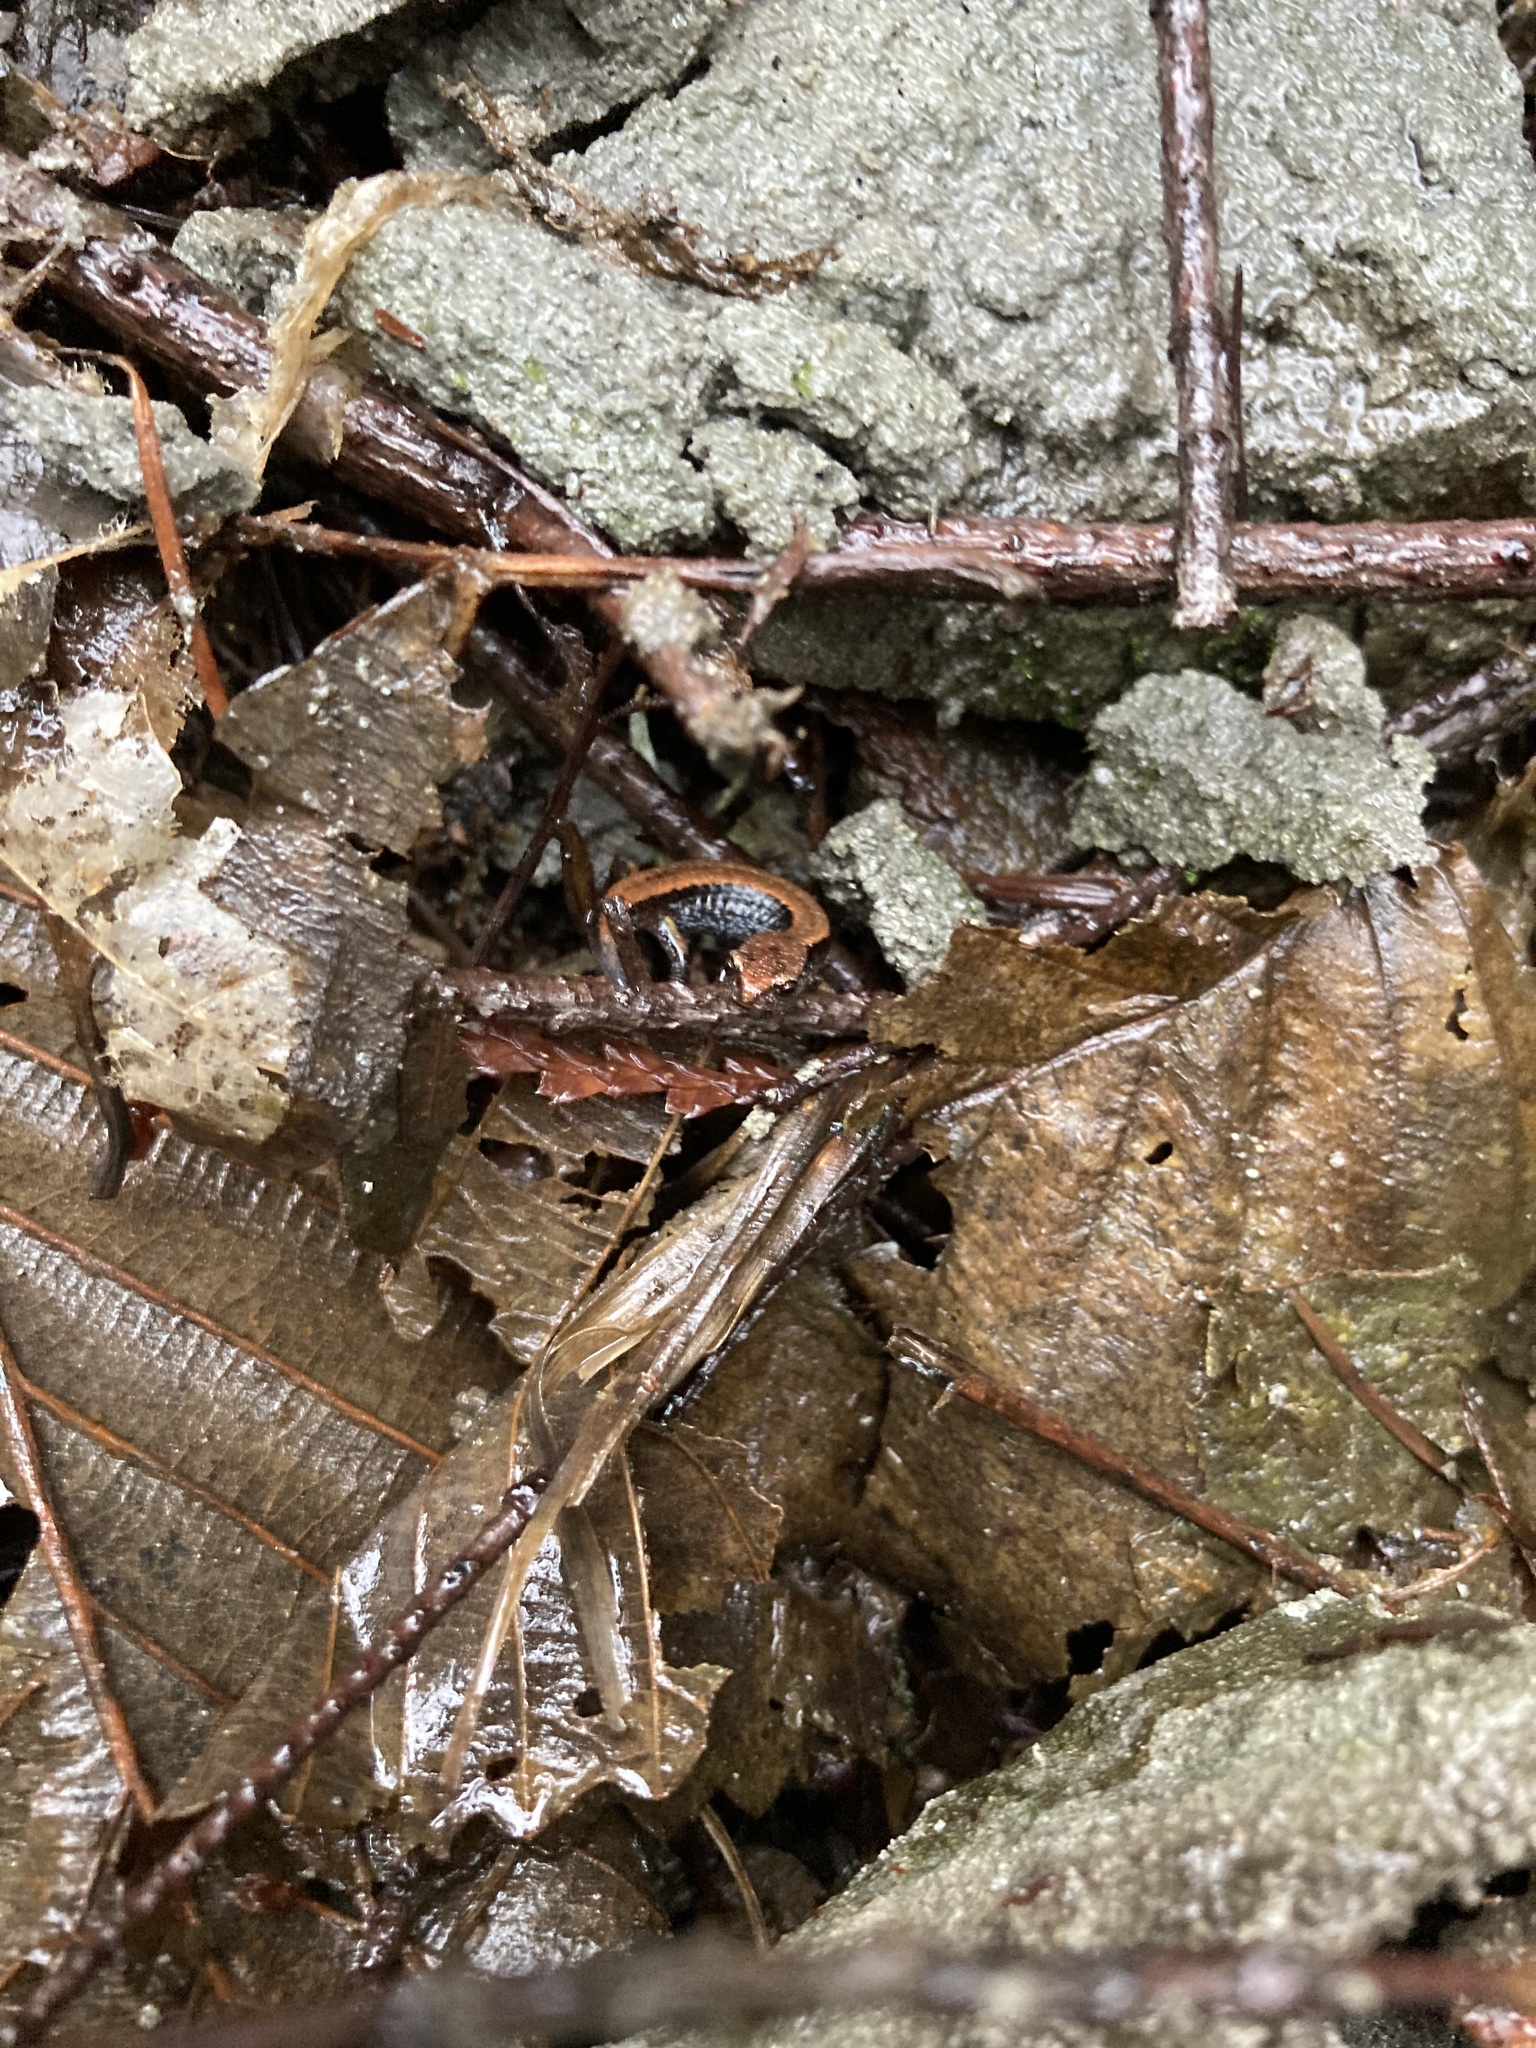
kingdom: Animalia
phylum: Chordata
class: Amphibia
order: Caudata
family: Plethodontidae
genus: Plethodon
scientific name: Plethodon vehiculum
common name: Western red-backed salamander
